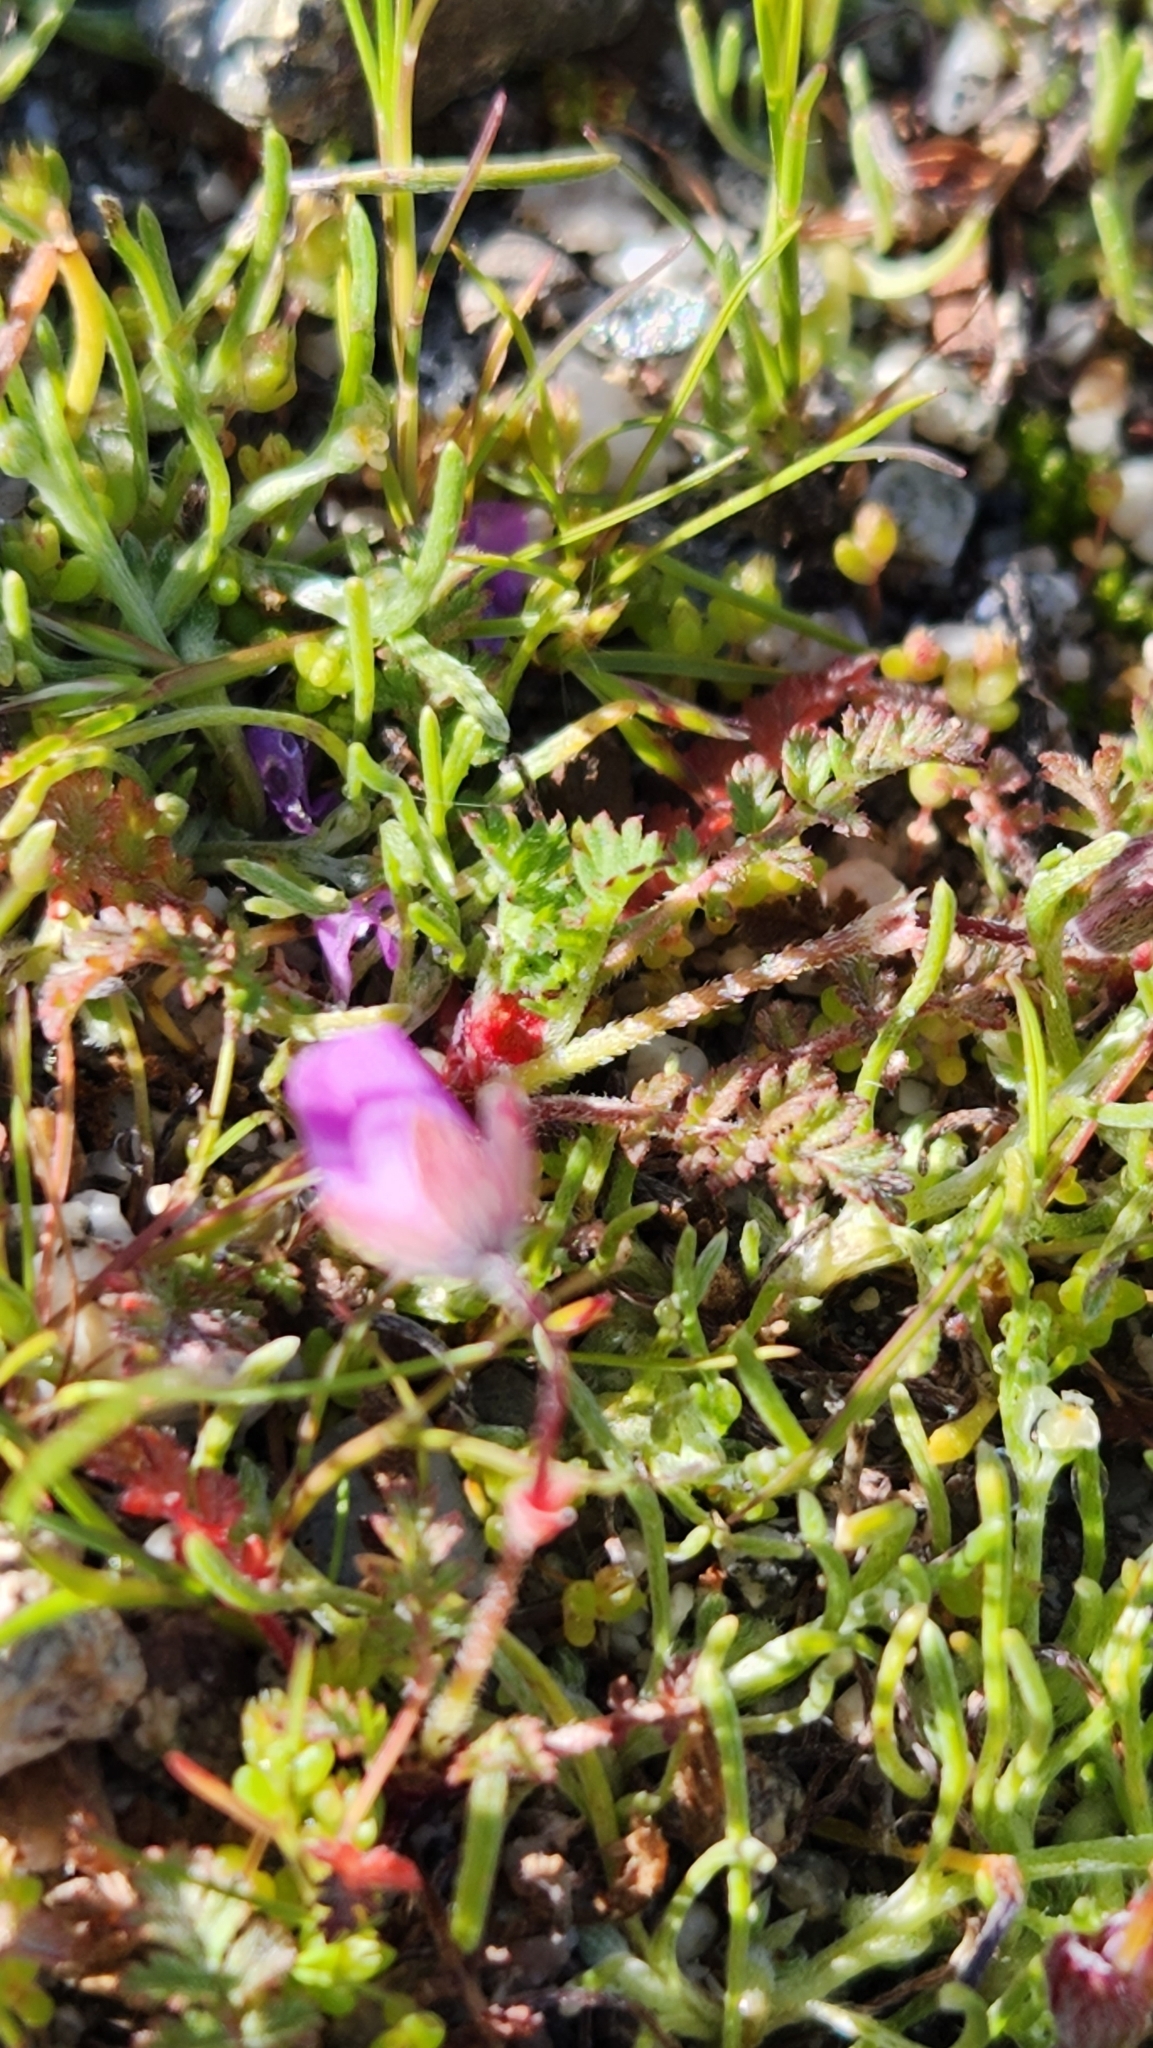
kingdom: Plantae
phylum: Tracheophyta
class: Magnoliopsida
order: Geraniales
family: Geraniaceae
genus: Erodium
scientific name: Erodium cicutarium
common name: Common stork's-bill
